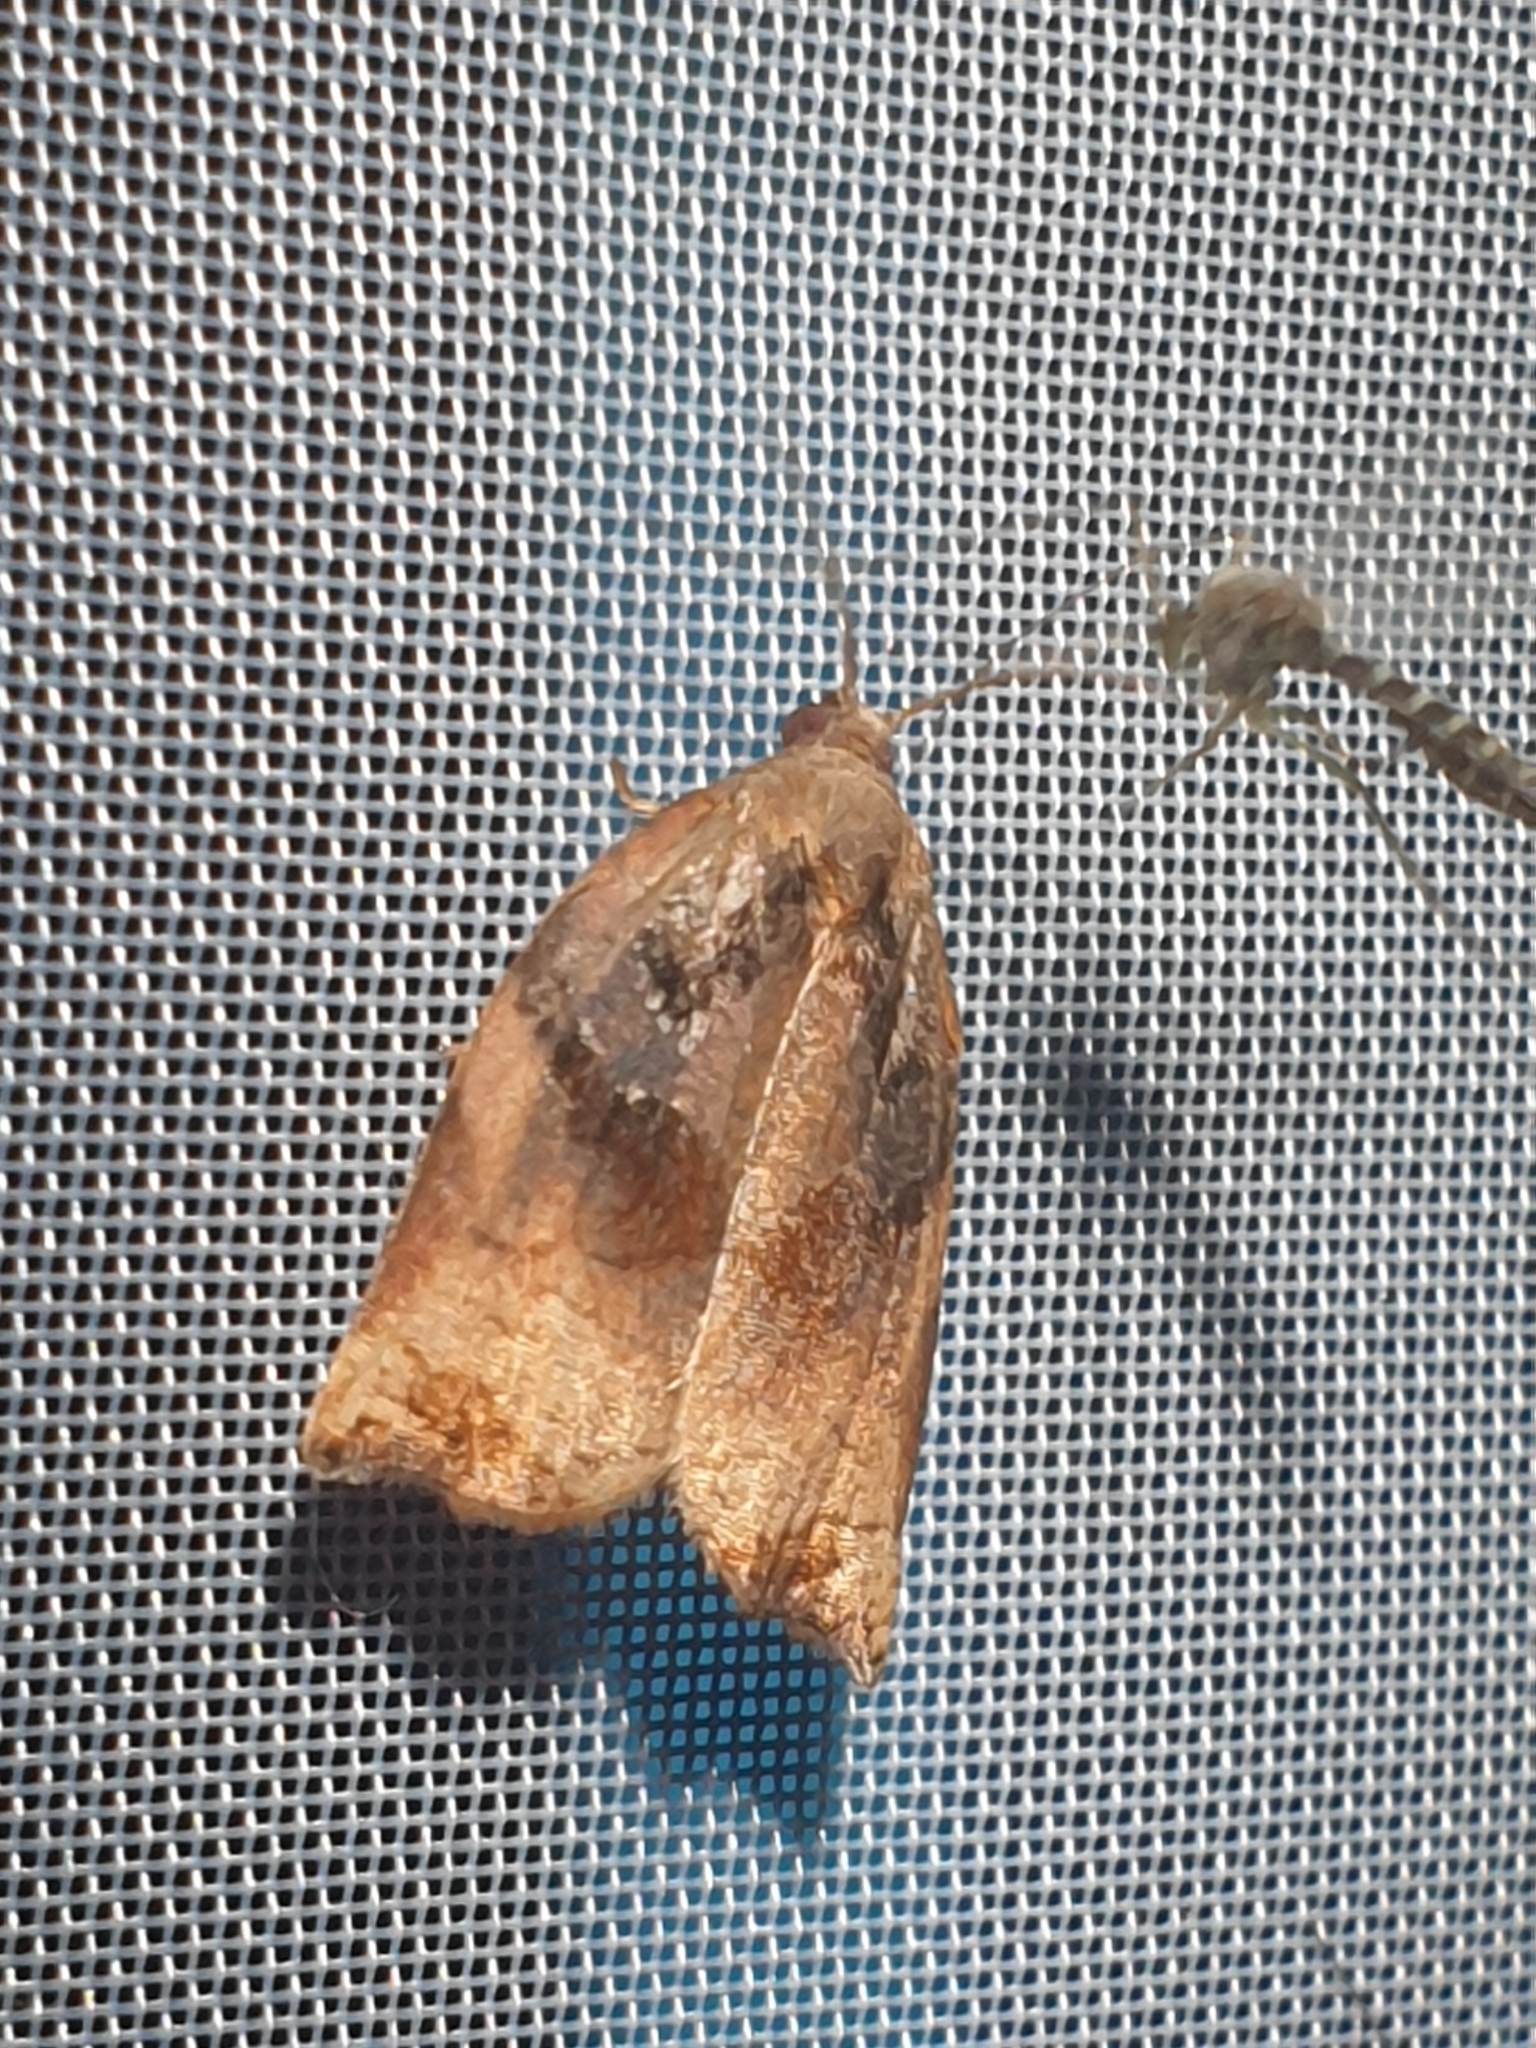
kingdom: Animalia
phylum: Arthropoda
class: Insecta
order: Lepidoptera
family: Tortricidae
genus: Archips
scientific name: Archips podana
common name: Large fruit-tree tortrix
